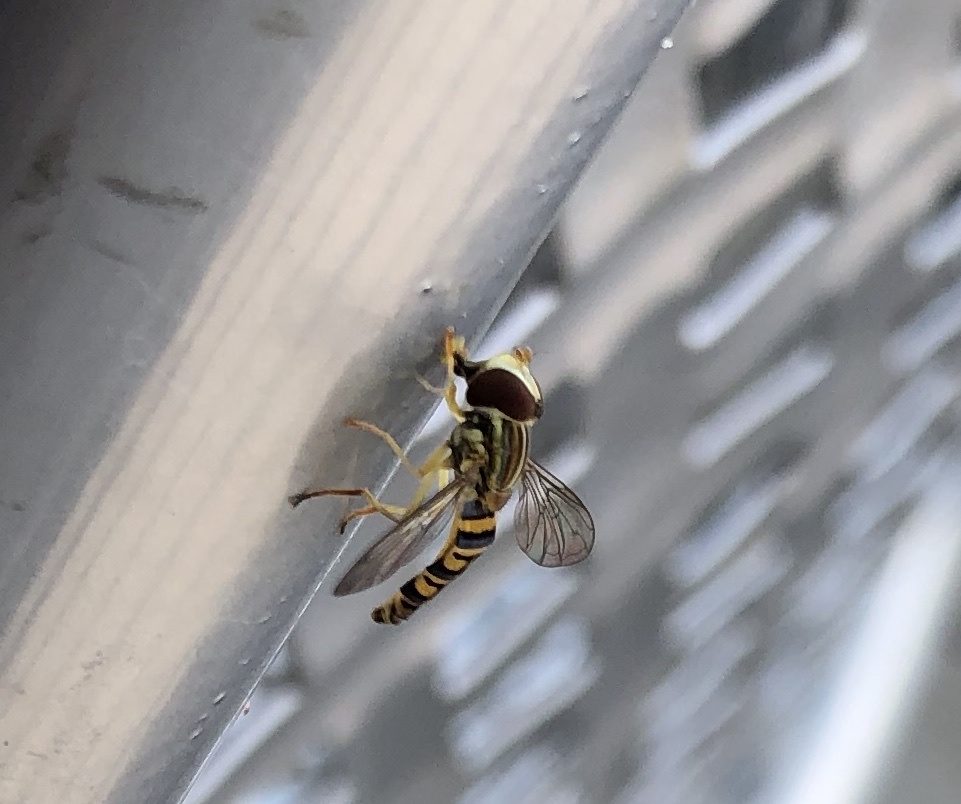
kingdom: Animalia
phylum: Arthropoda
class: Insecta
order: Diptera
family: Syrphidae
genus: Toxomerus
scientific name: Toxomerus politus
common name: Maize calligrapher
